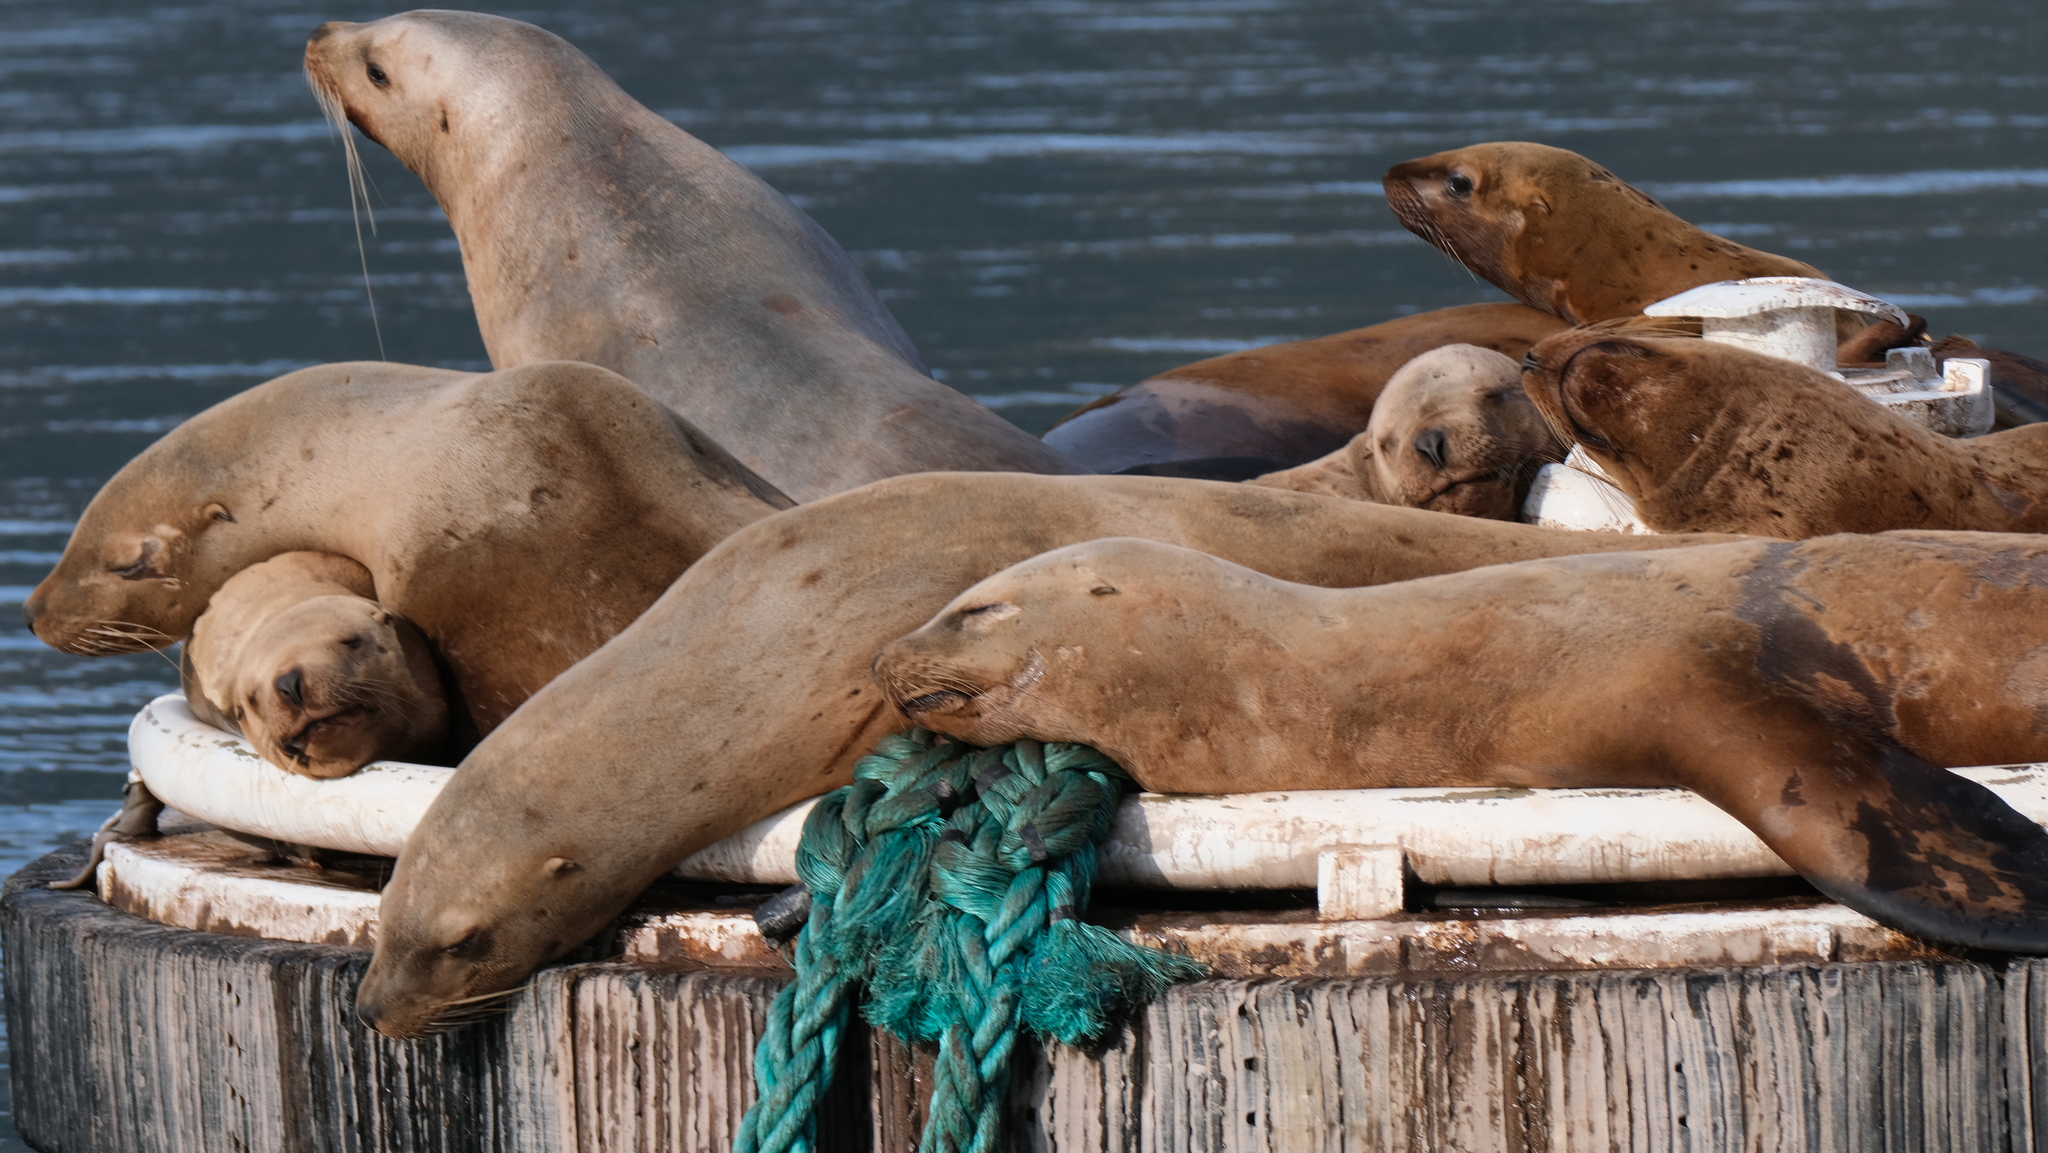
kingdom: Animalia
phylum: Chordata
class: Mammalia
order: Carnivora
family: Otariidae
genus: Eumetopias
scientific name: Eumetopias jubatus
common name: Steller sea lion
